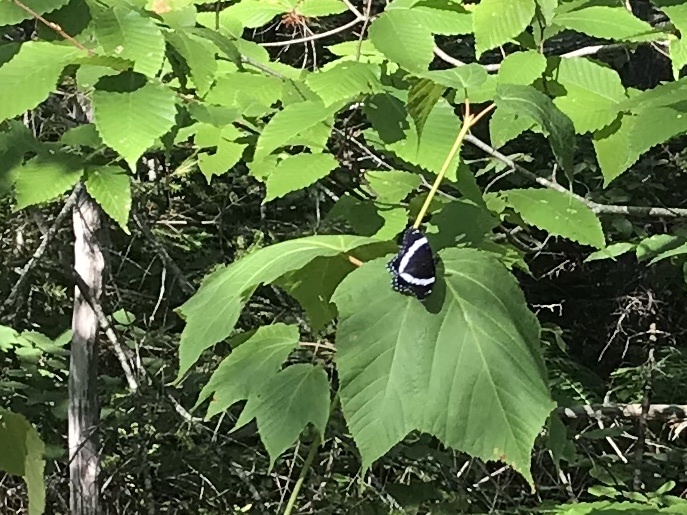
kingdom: Animalia
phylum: Arthropoda
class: Insecta
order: Lepidoptera
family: Nymphalidae
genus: Limenitis
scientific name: Limenitis arthemis
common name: Red-spotted admiral
